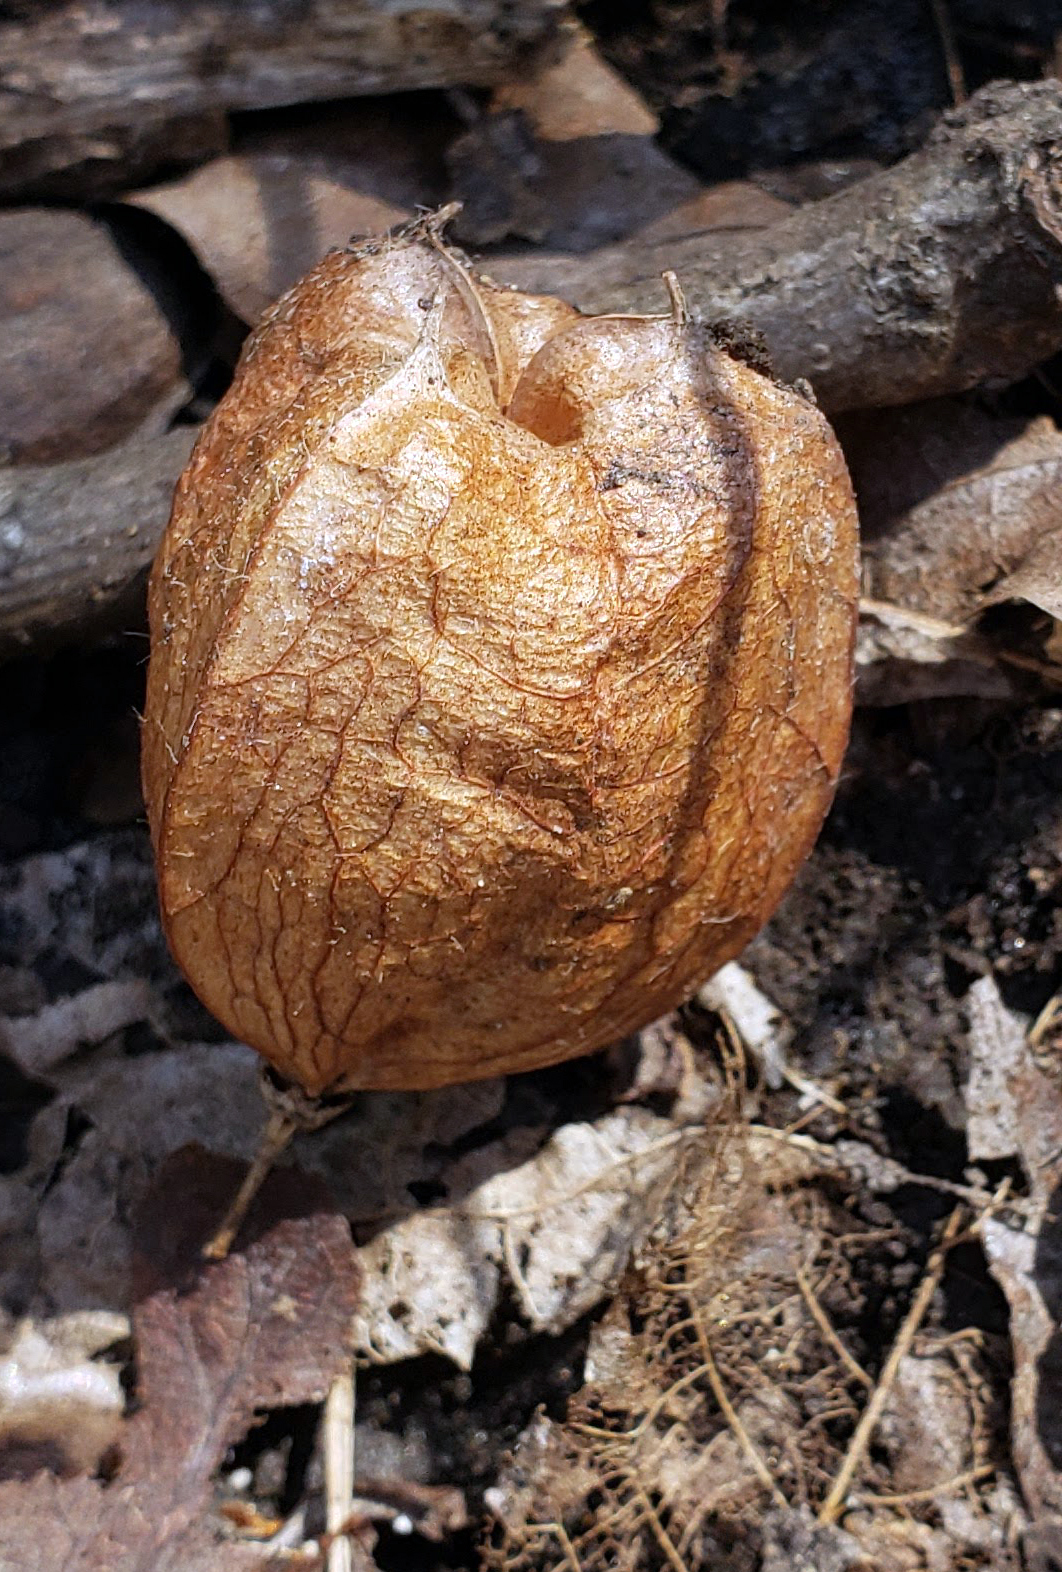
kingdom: Plantae
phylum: Tracheophyta
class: Magnoliopsida
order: Crossosomatales
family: Staphyleaceae
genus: Staphylea
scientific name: Staphylea trifolia
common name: American bladdernut
